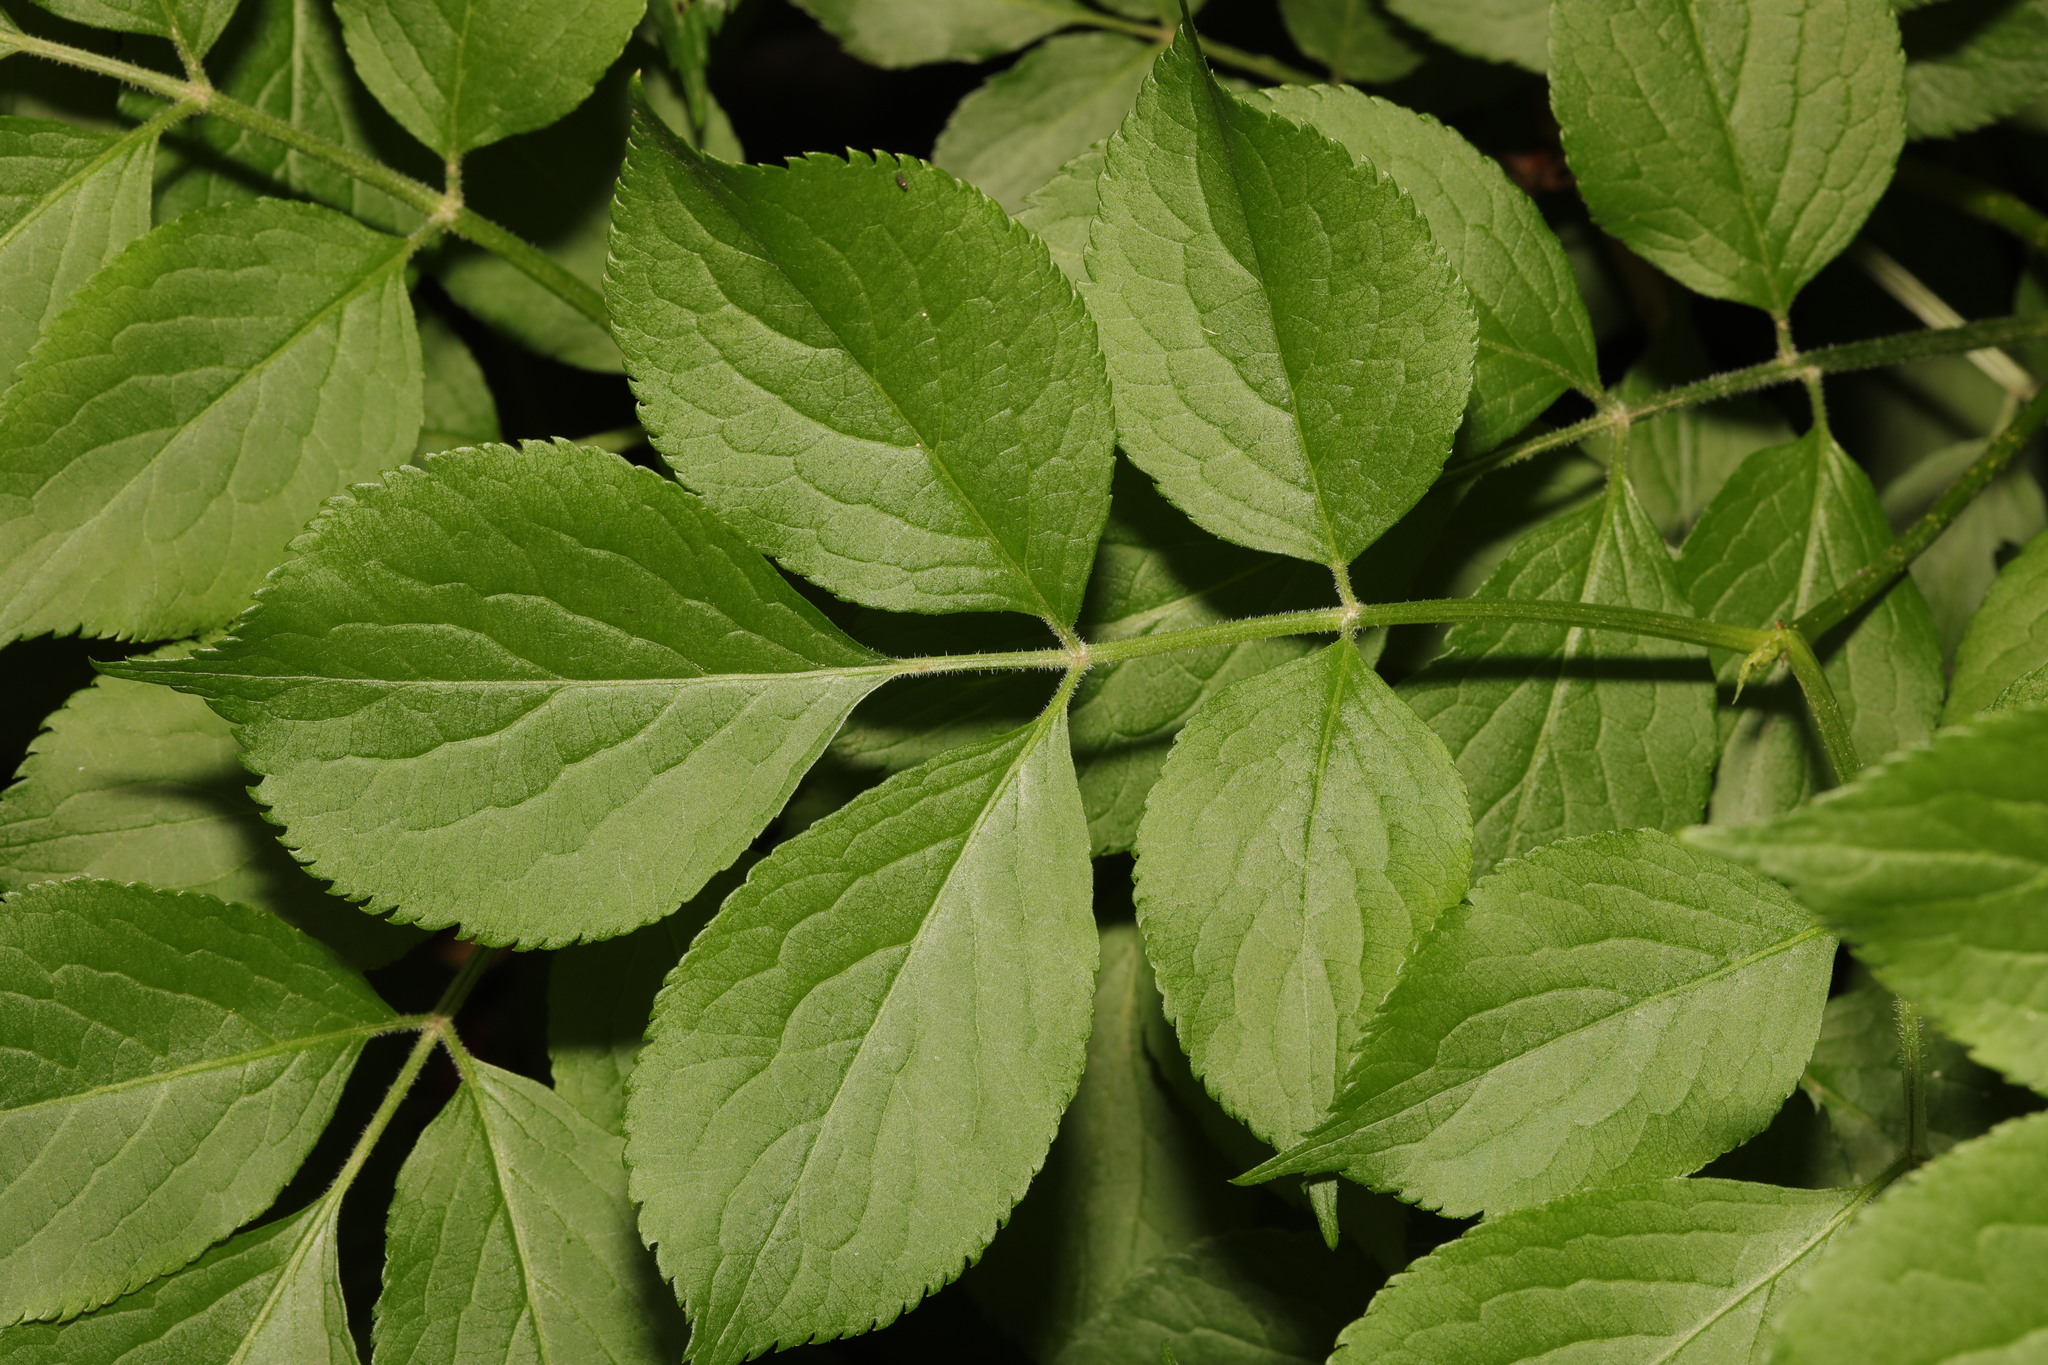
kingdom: Plantae
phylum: Tracheophyta
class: Magnoliopsida
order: Dipsacales
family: Viburnaceae
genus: Sambucus
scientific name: Sambucus nigra
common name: Elder
